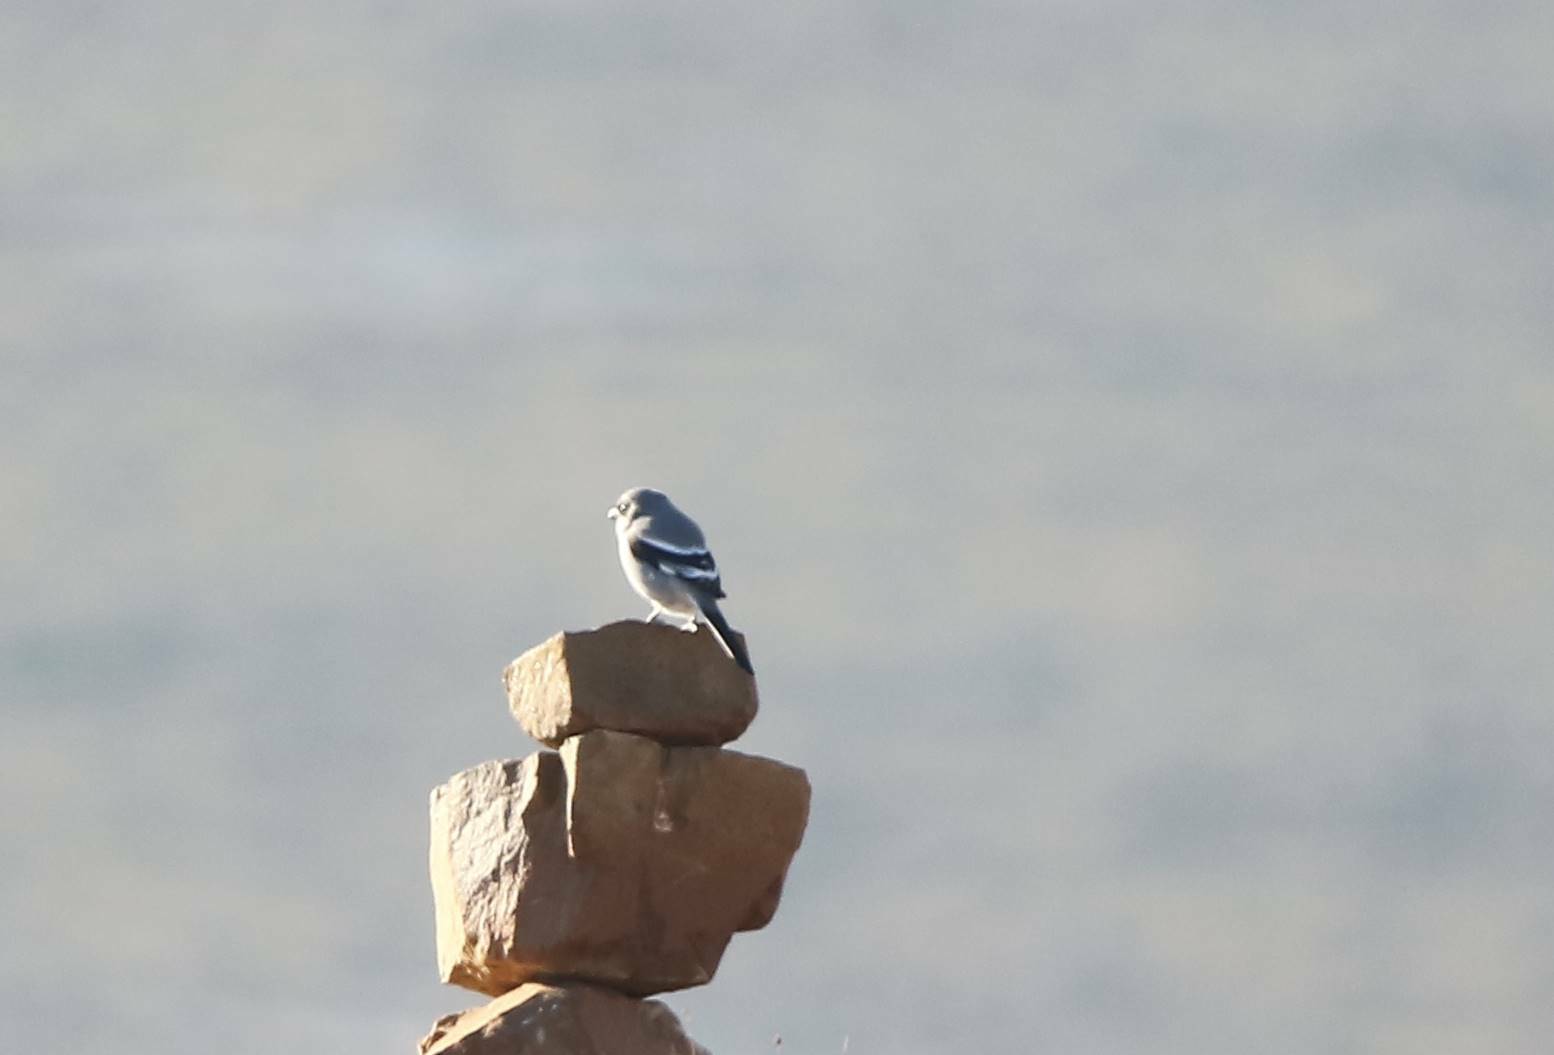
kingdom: Animalia
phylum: Chordata
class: Aves
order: Passeriformes
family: Laniidae
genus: Lanius
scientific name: Lanius excubitor
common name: Great grey shrike
